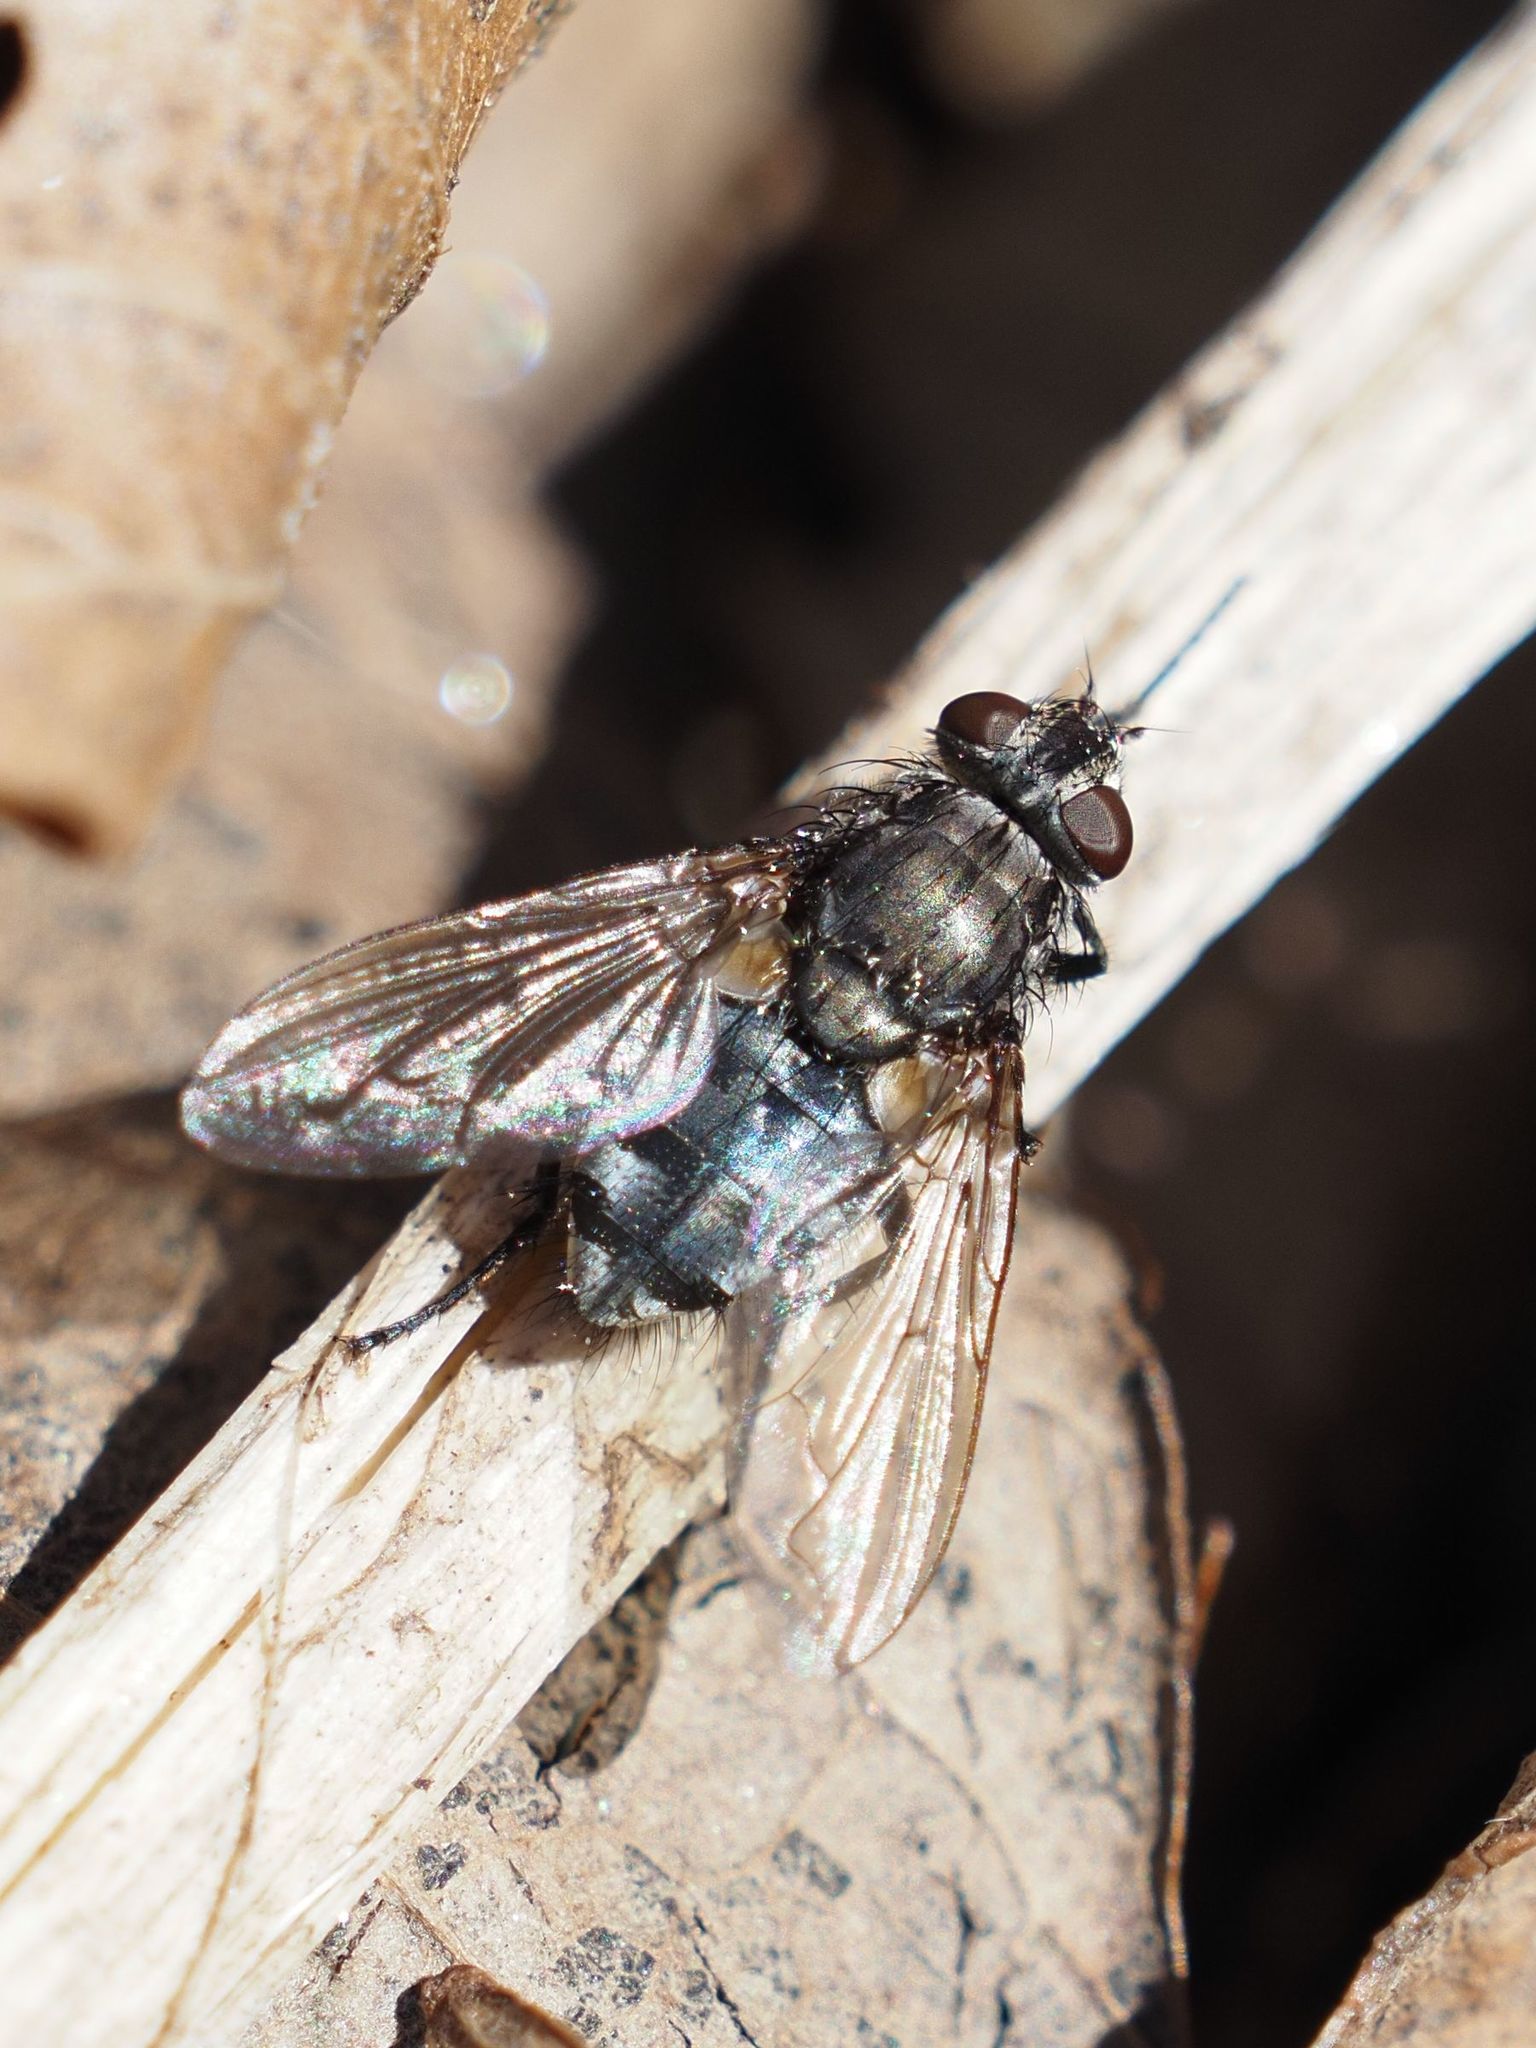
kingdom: Animalia
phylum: Arthropoda
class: Insecta
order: Diptera
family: Polleniidae
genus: Pollenia
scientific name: Pollenia vagabunda
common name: Vagabund cluster fly
